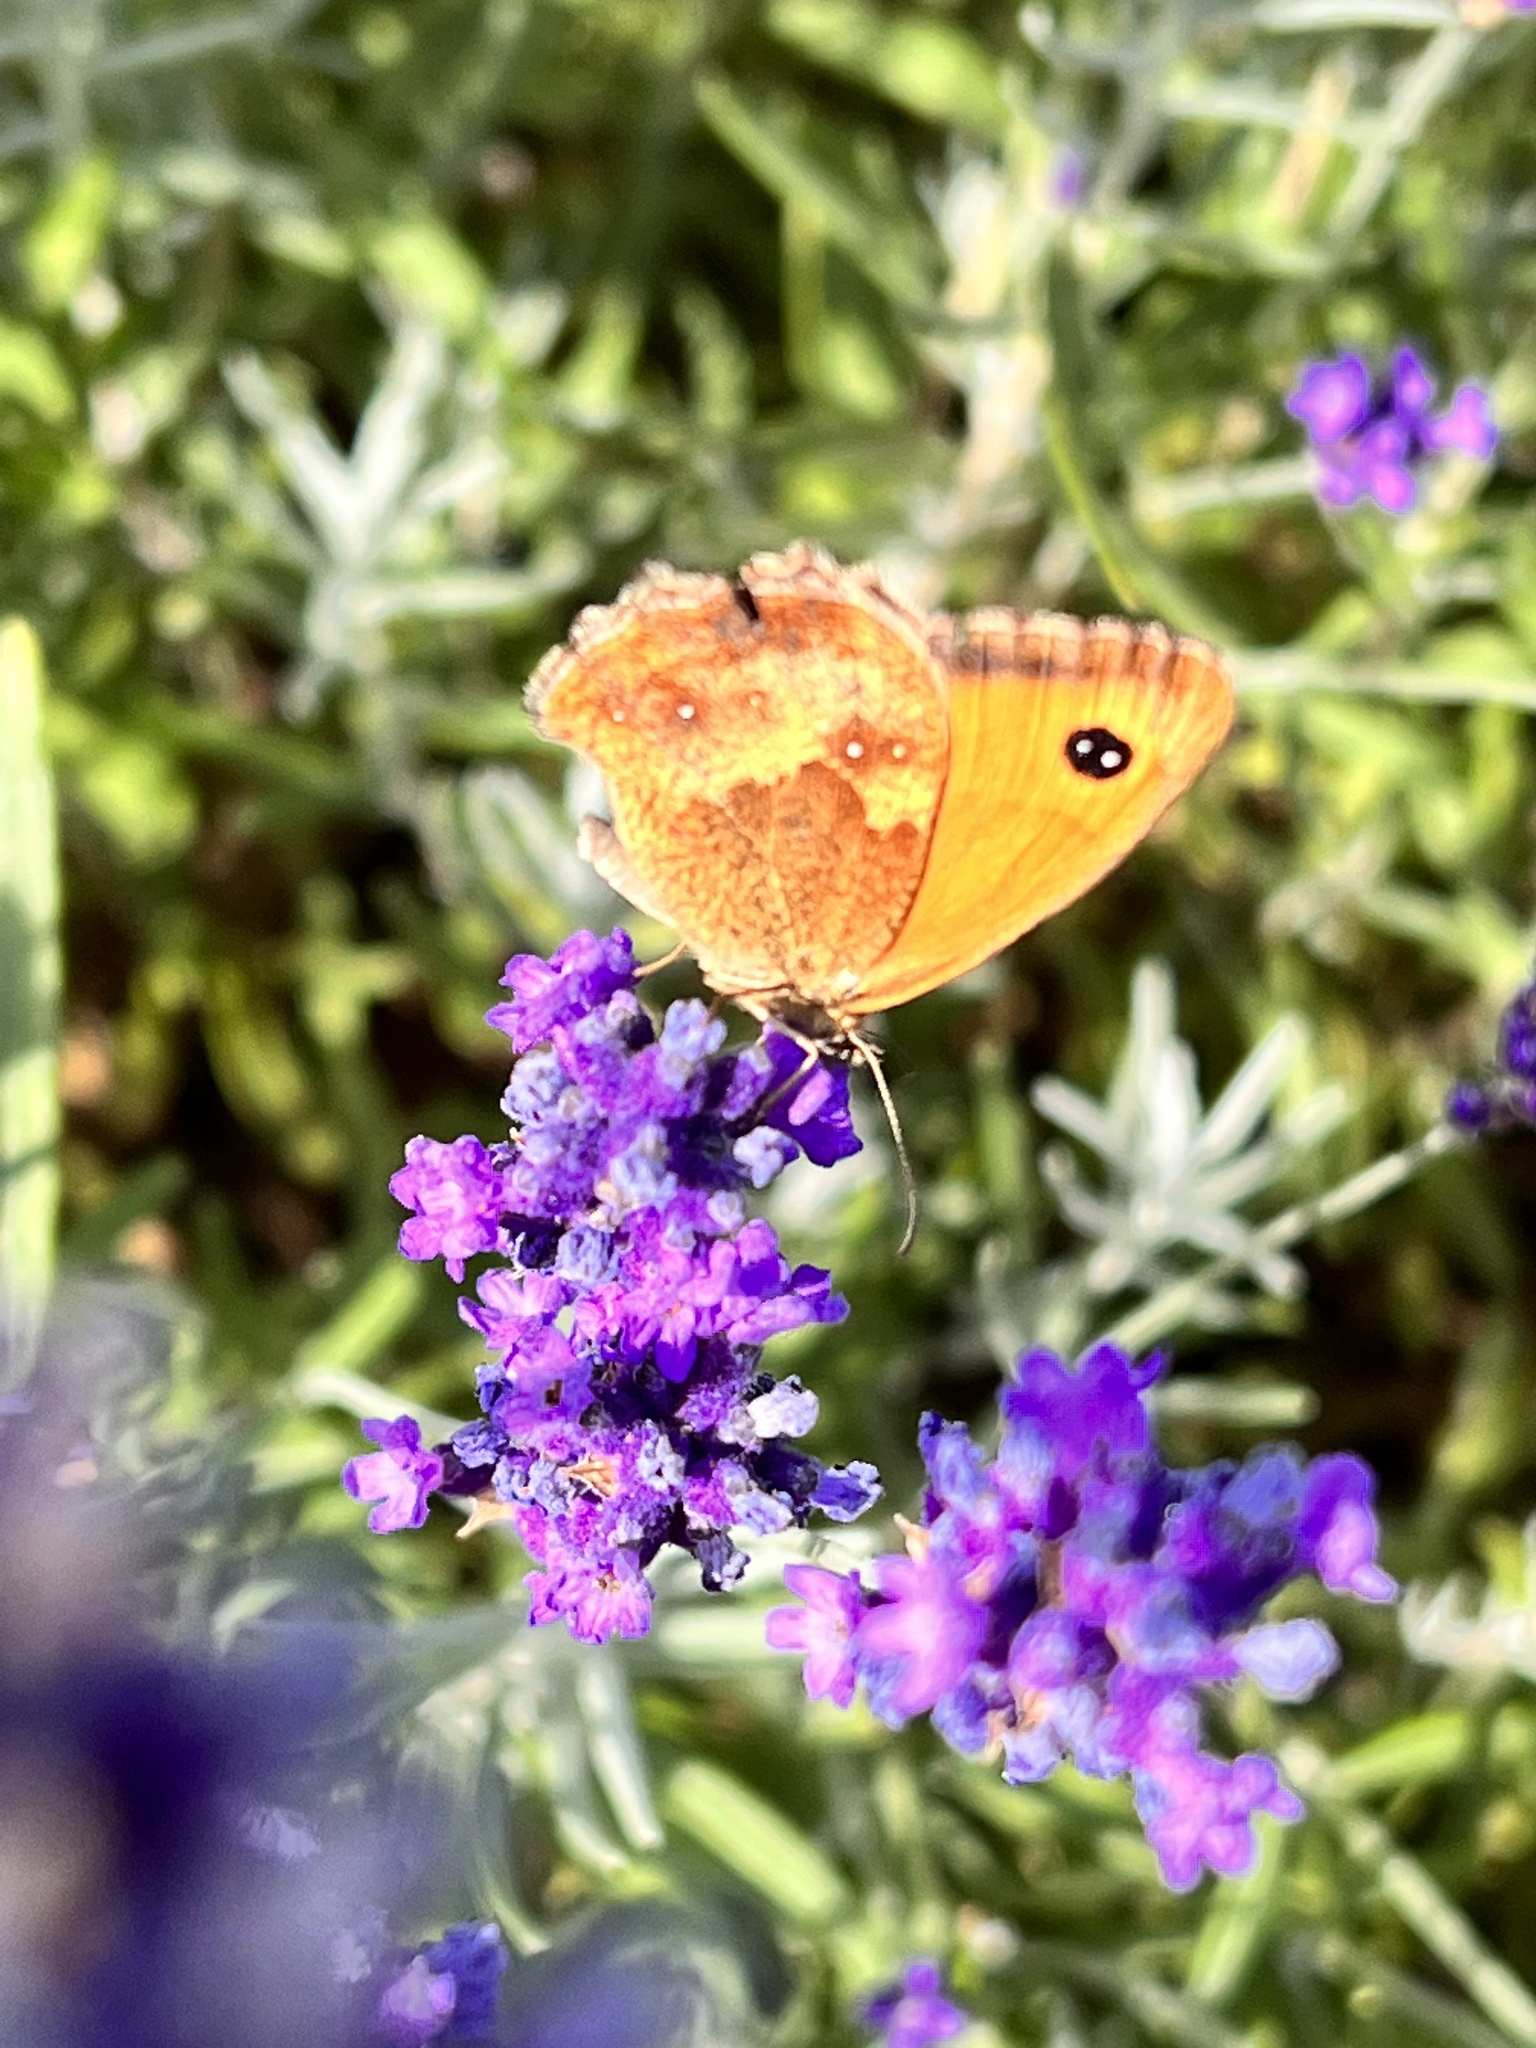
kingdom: Animalia
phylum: Arthropoda
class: Insecta
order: Lepidoptera
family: Nymphalidae
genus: Pyronia
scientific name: Pyronia tithonus
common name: Gatekeeper
